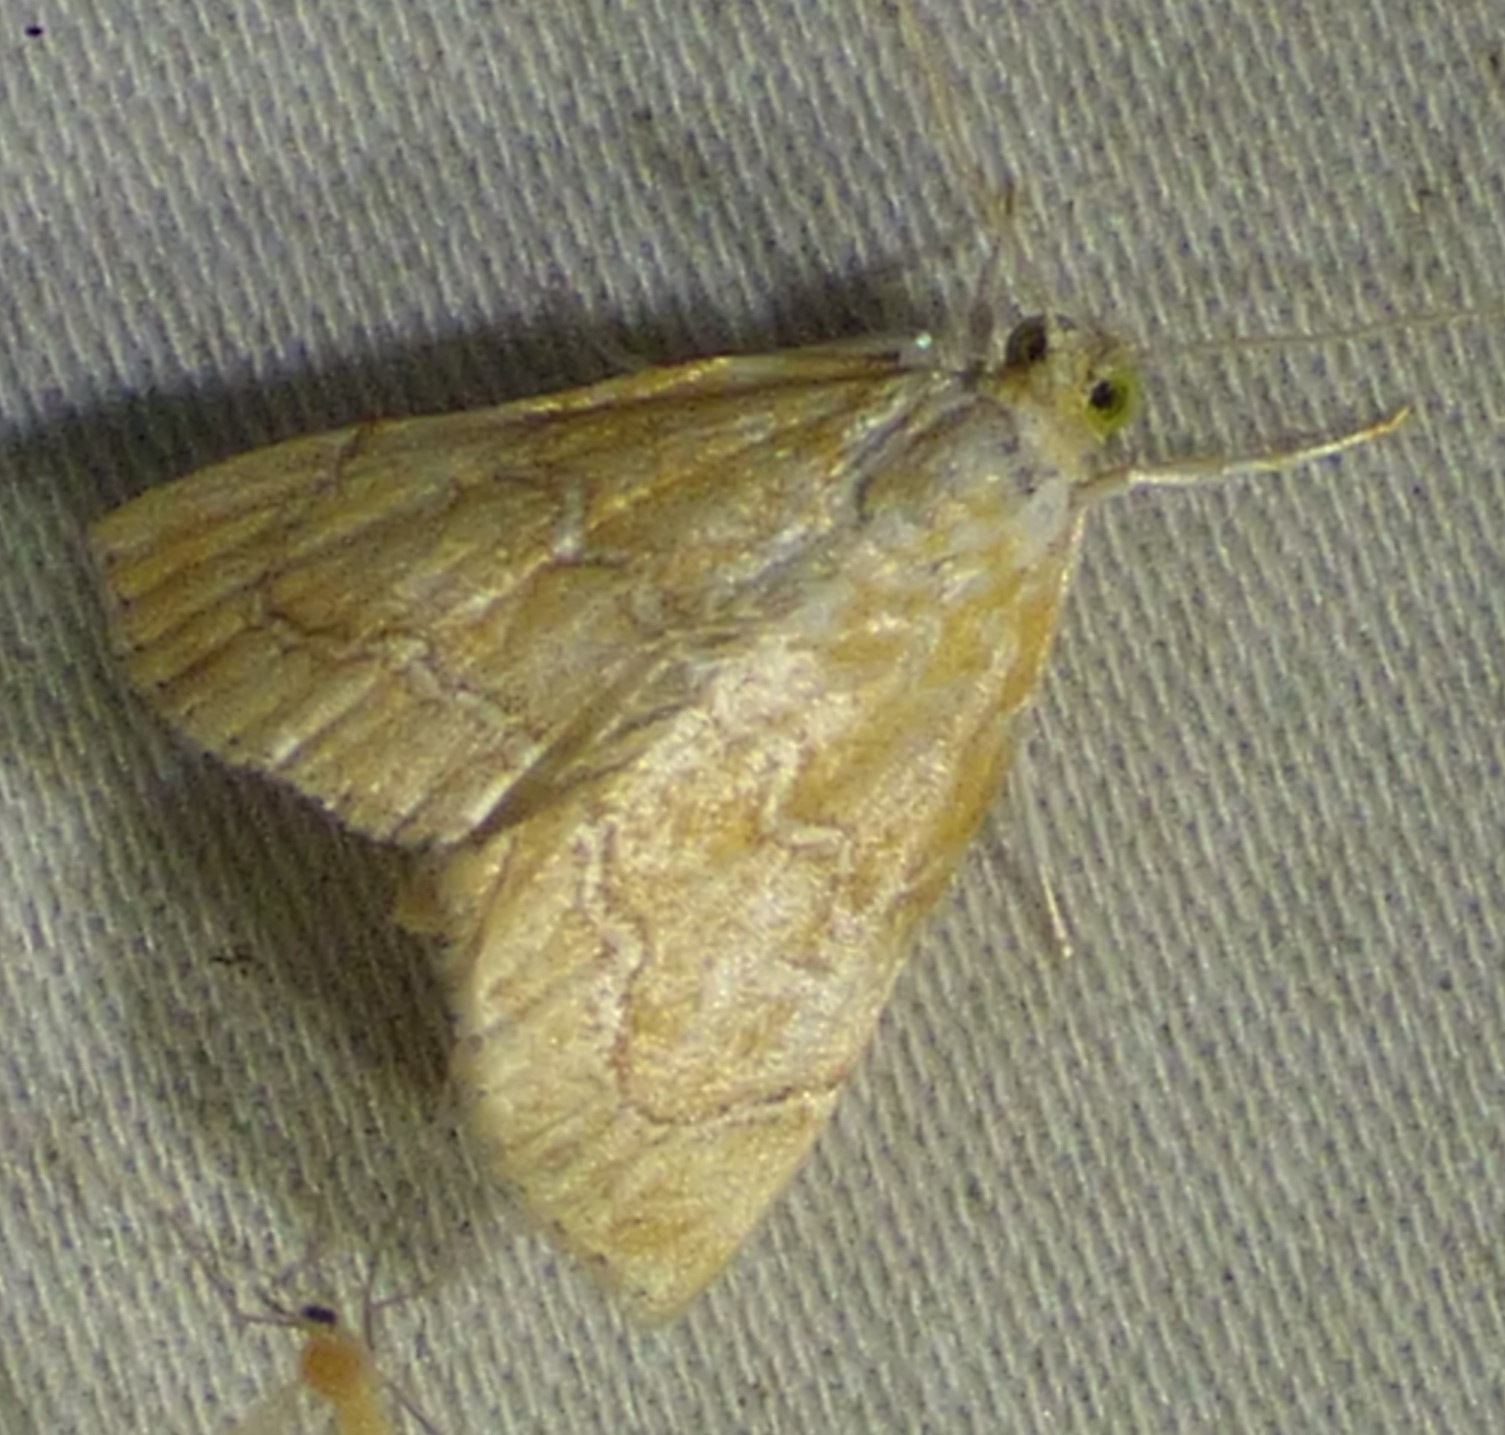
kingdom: Animalia
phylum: Arthropoda
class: Insecta
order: Lepidoptera
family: Crambidae
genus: Glaphyria
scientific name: Glaphyria sesquistrialis
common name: White-roped glaphyria
